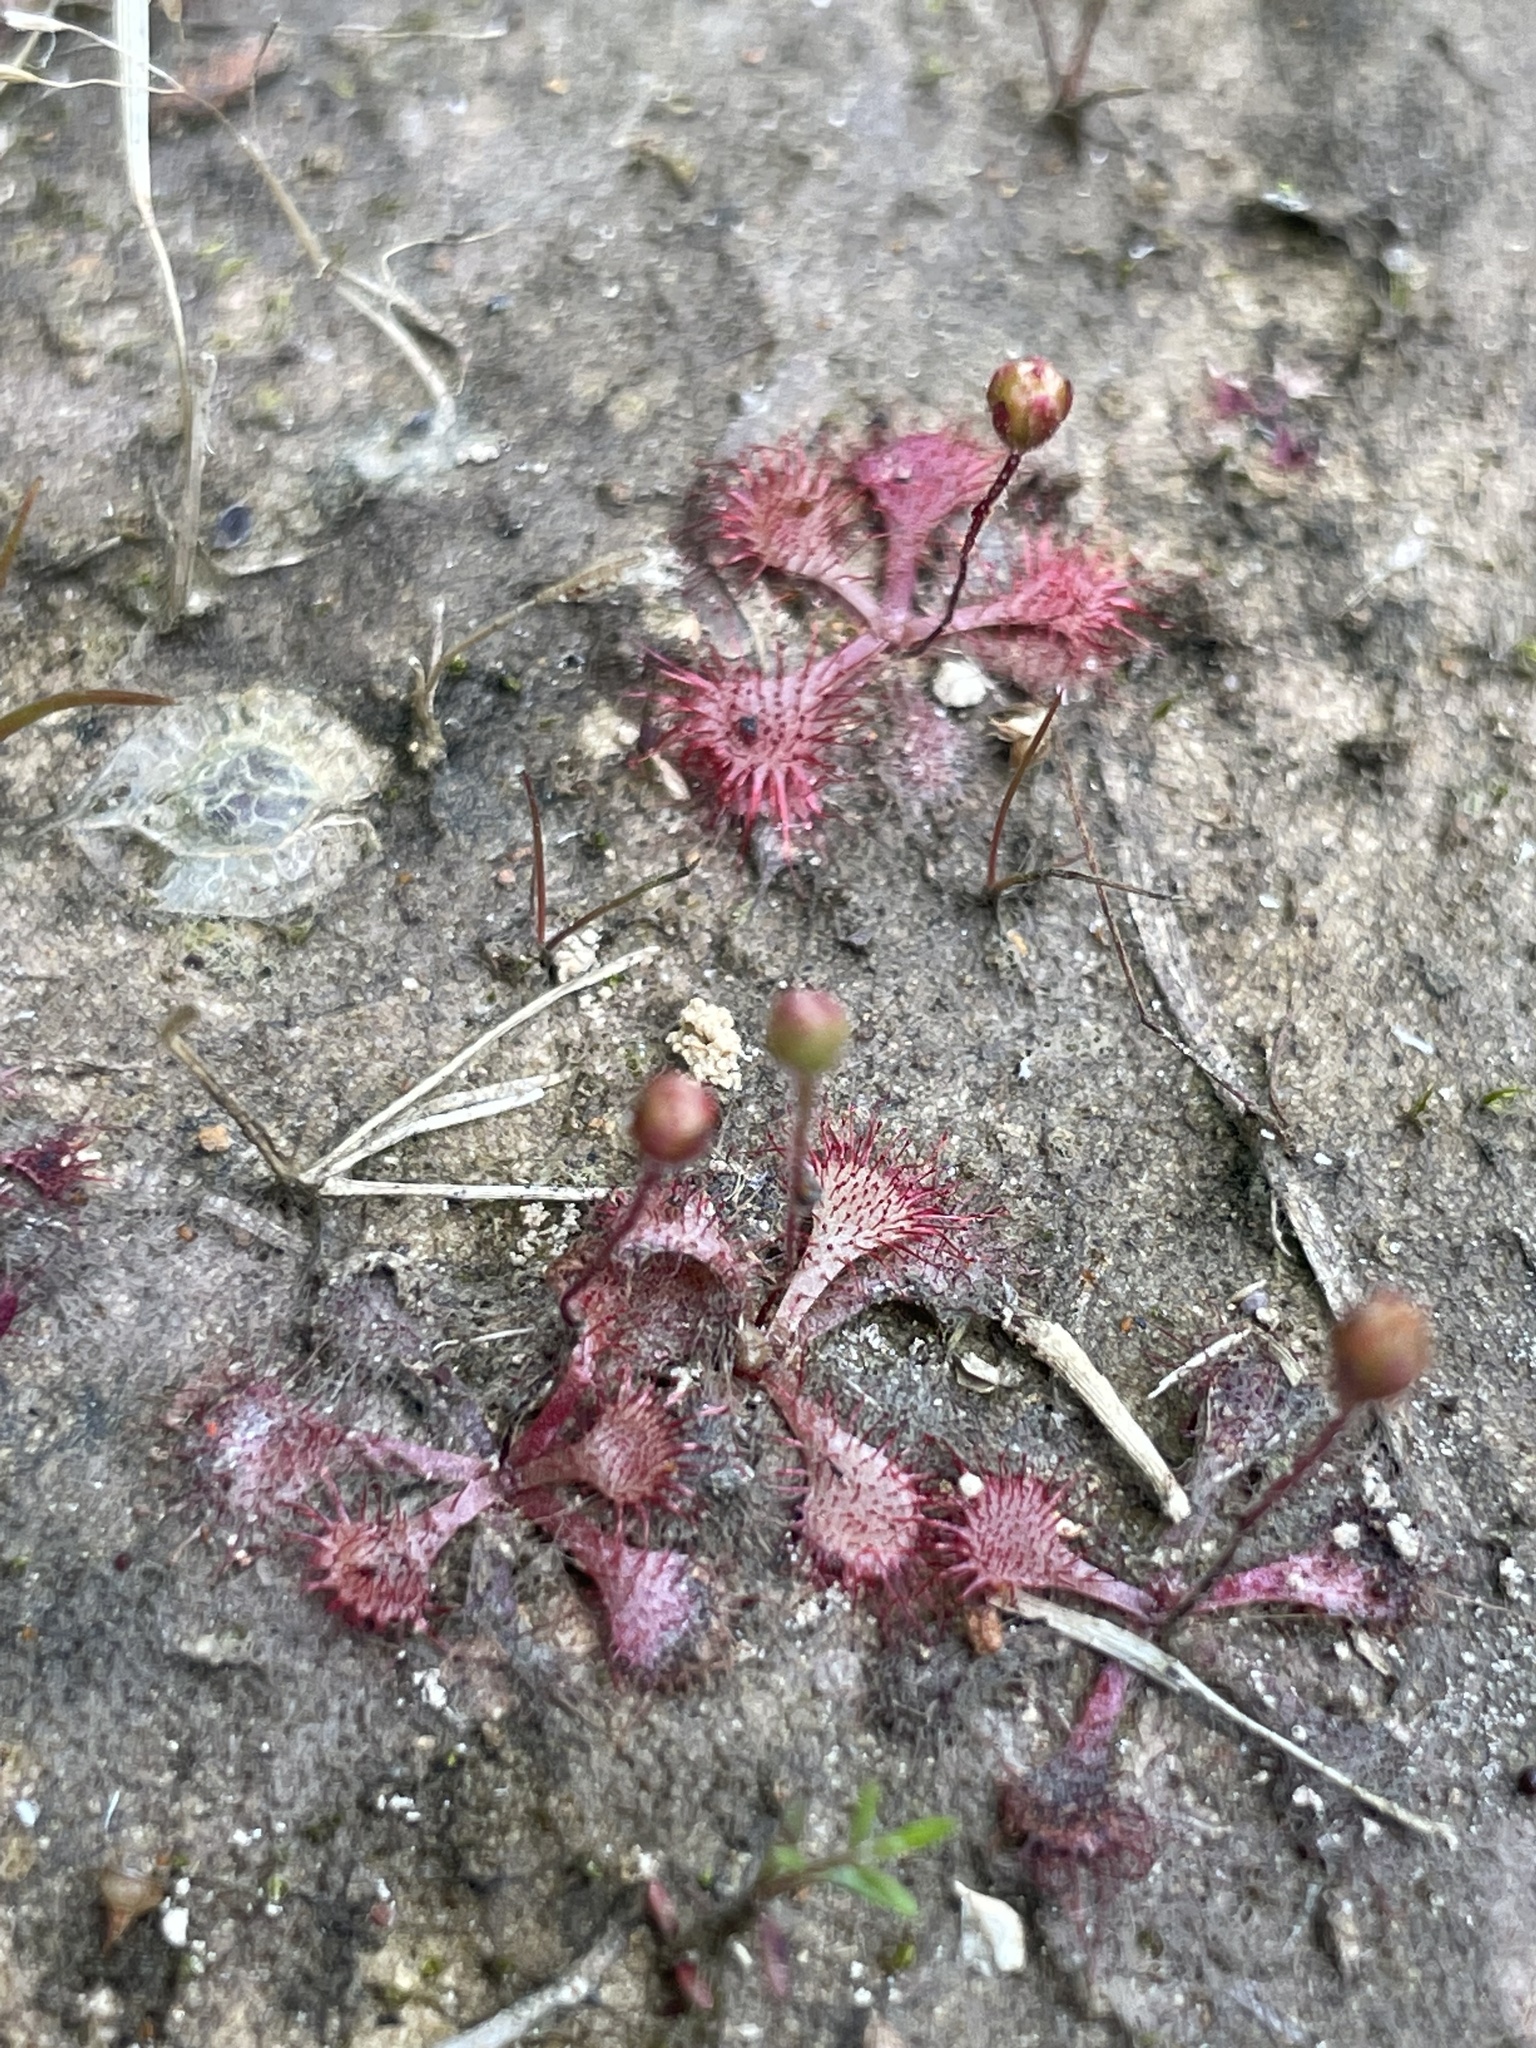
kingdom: Plantae
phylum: Tracheophyta
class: Magnoliopsida
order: Caryophyllales
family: Droseraceae
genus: Drosera
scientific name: Drosera brevifolia
